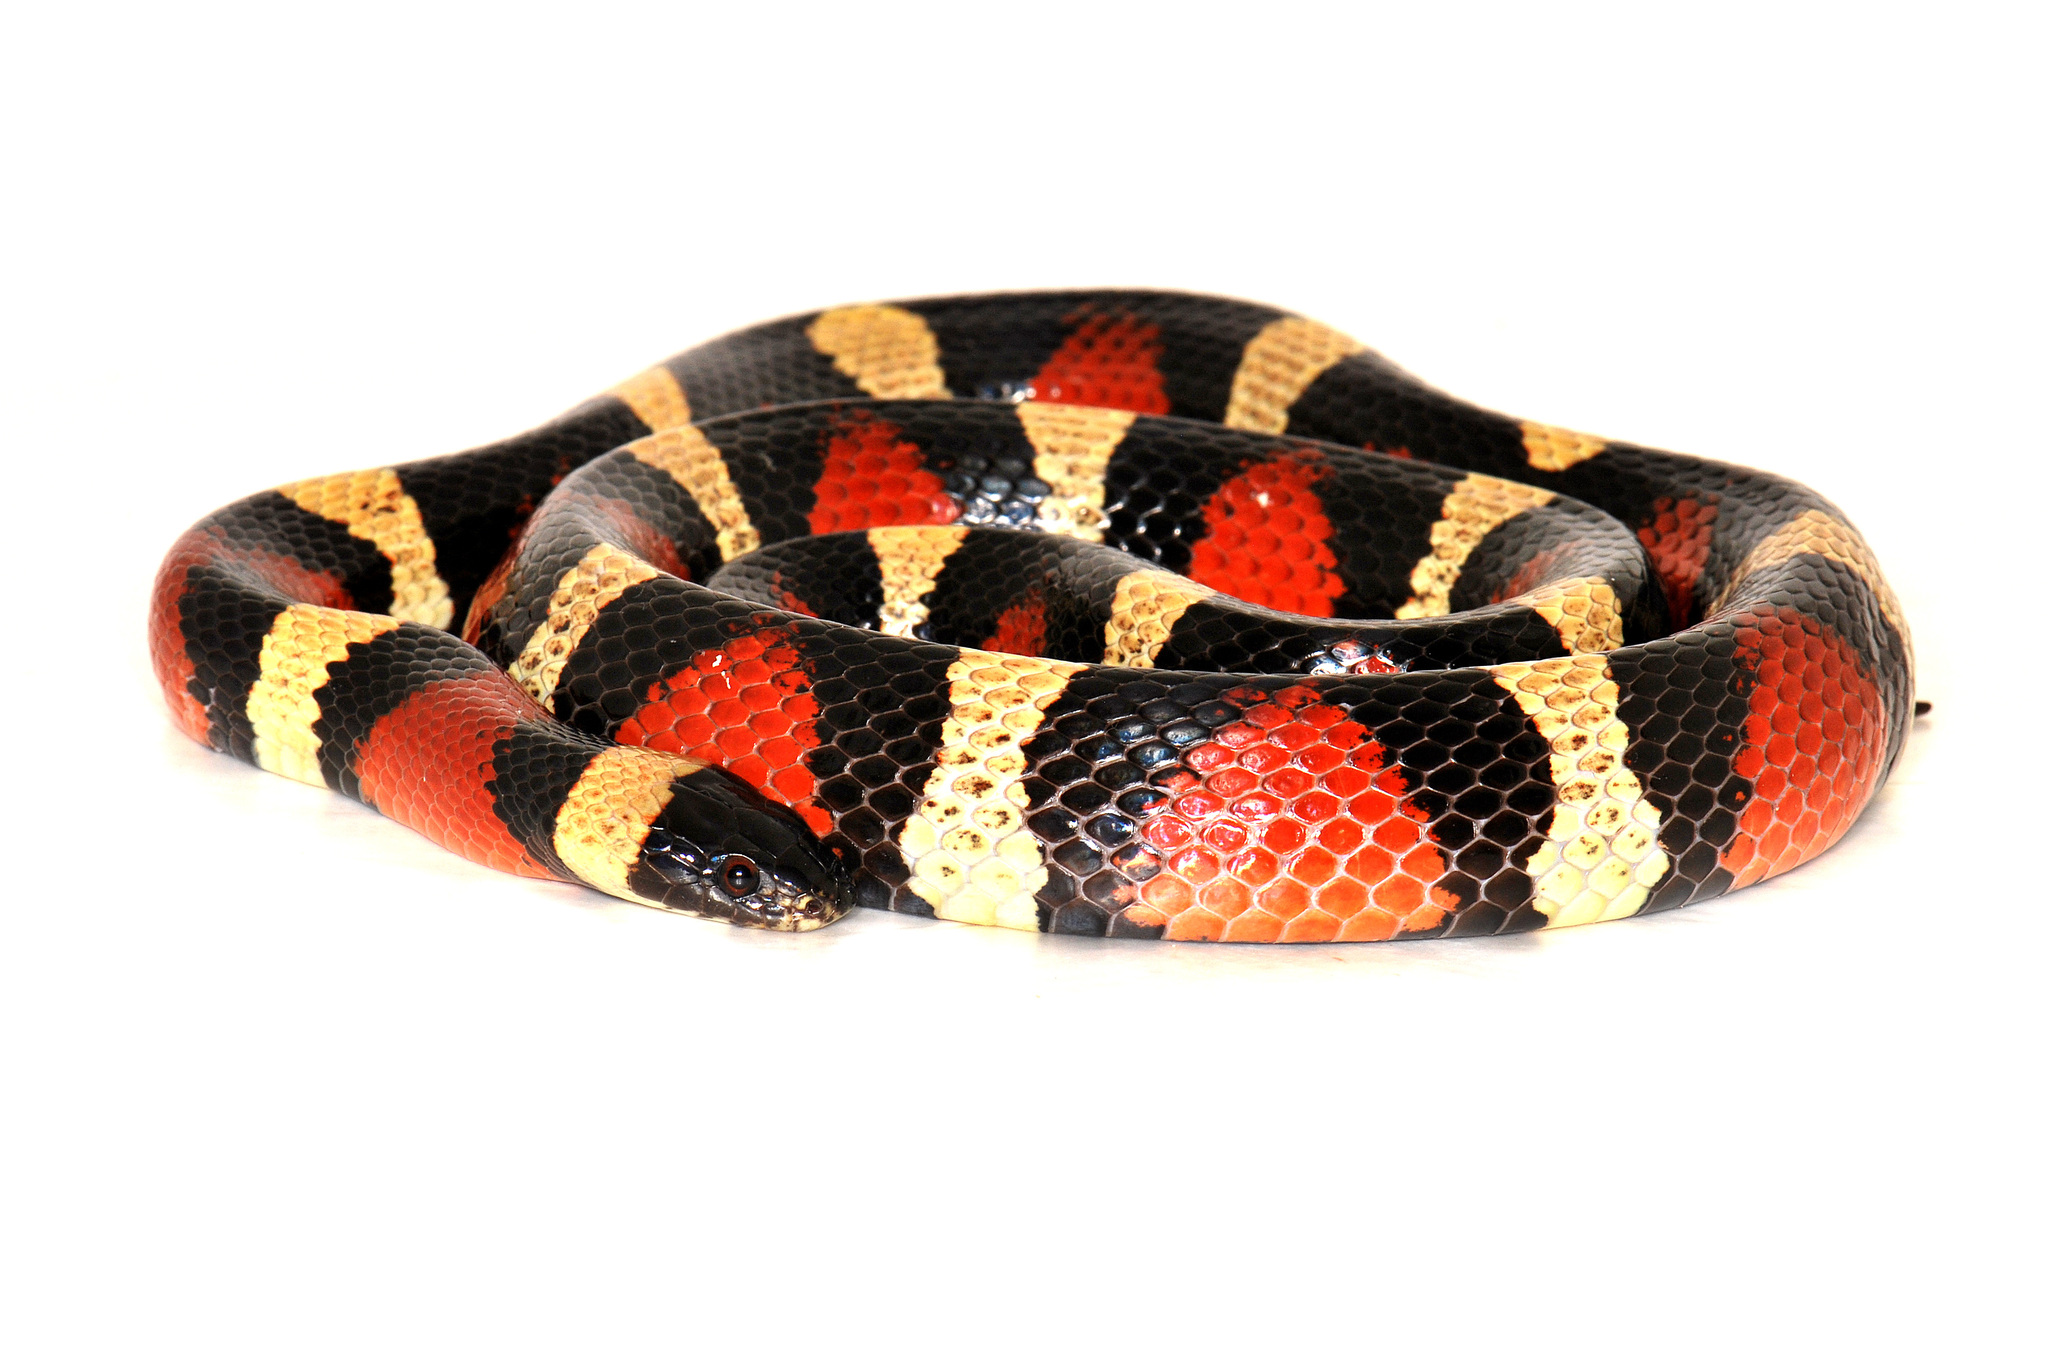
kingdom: Animalia
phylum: Chordata
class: Squamata
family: Colubridae
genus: Lampropeltis
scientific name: Lampropeltis annulata
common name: Mexican milksnake
